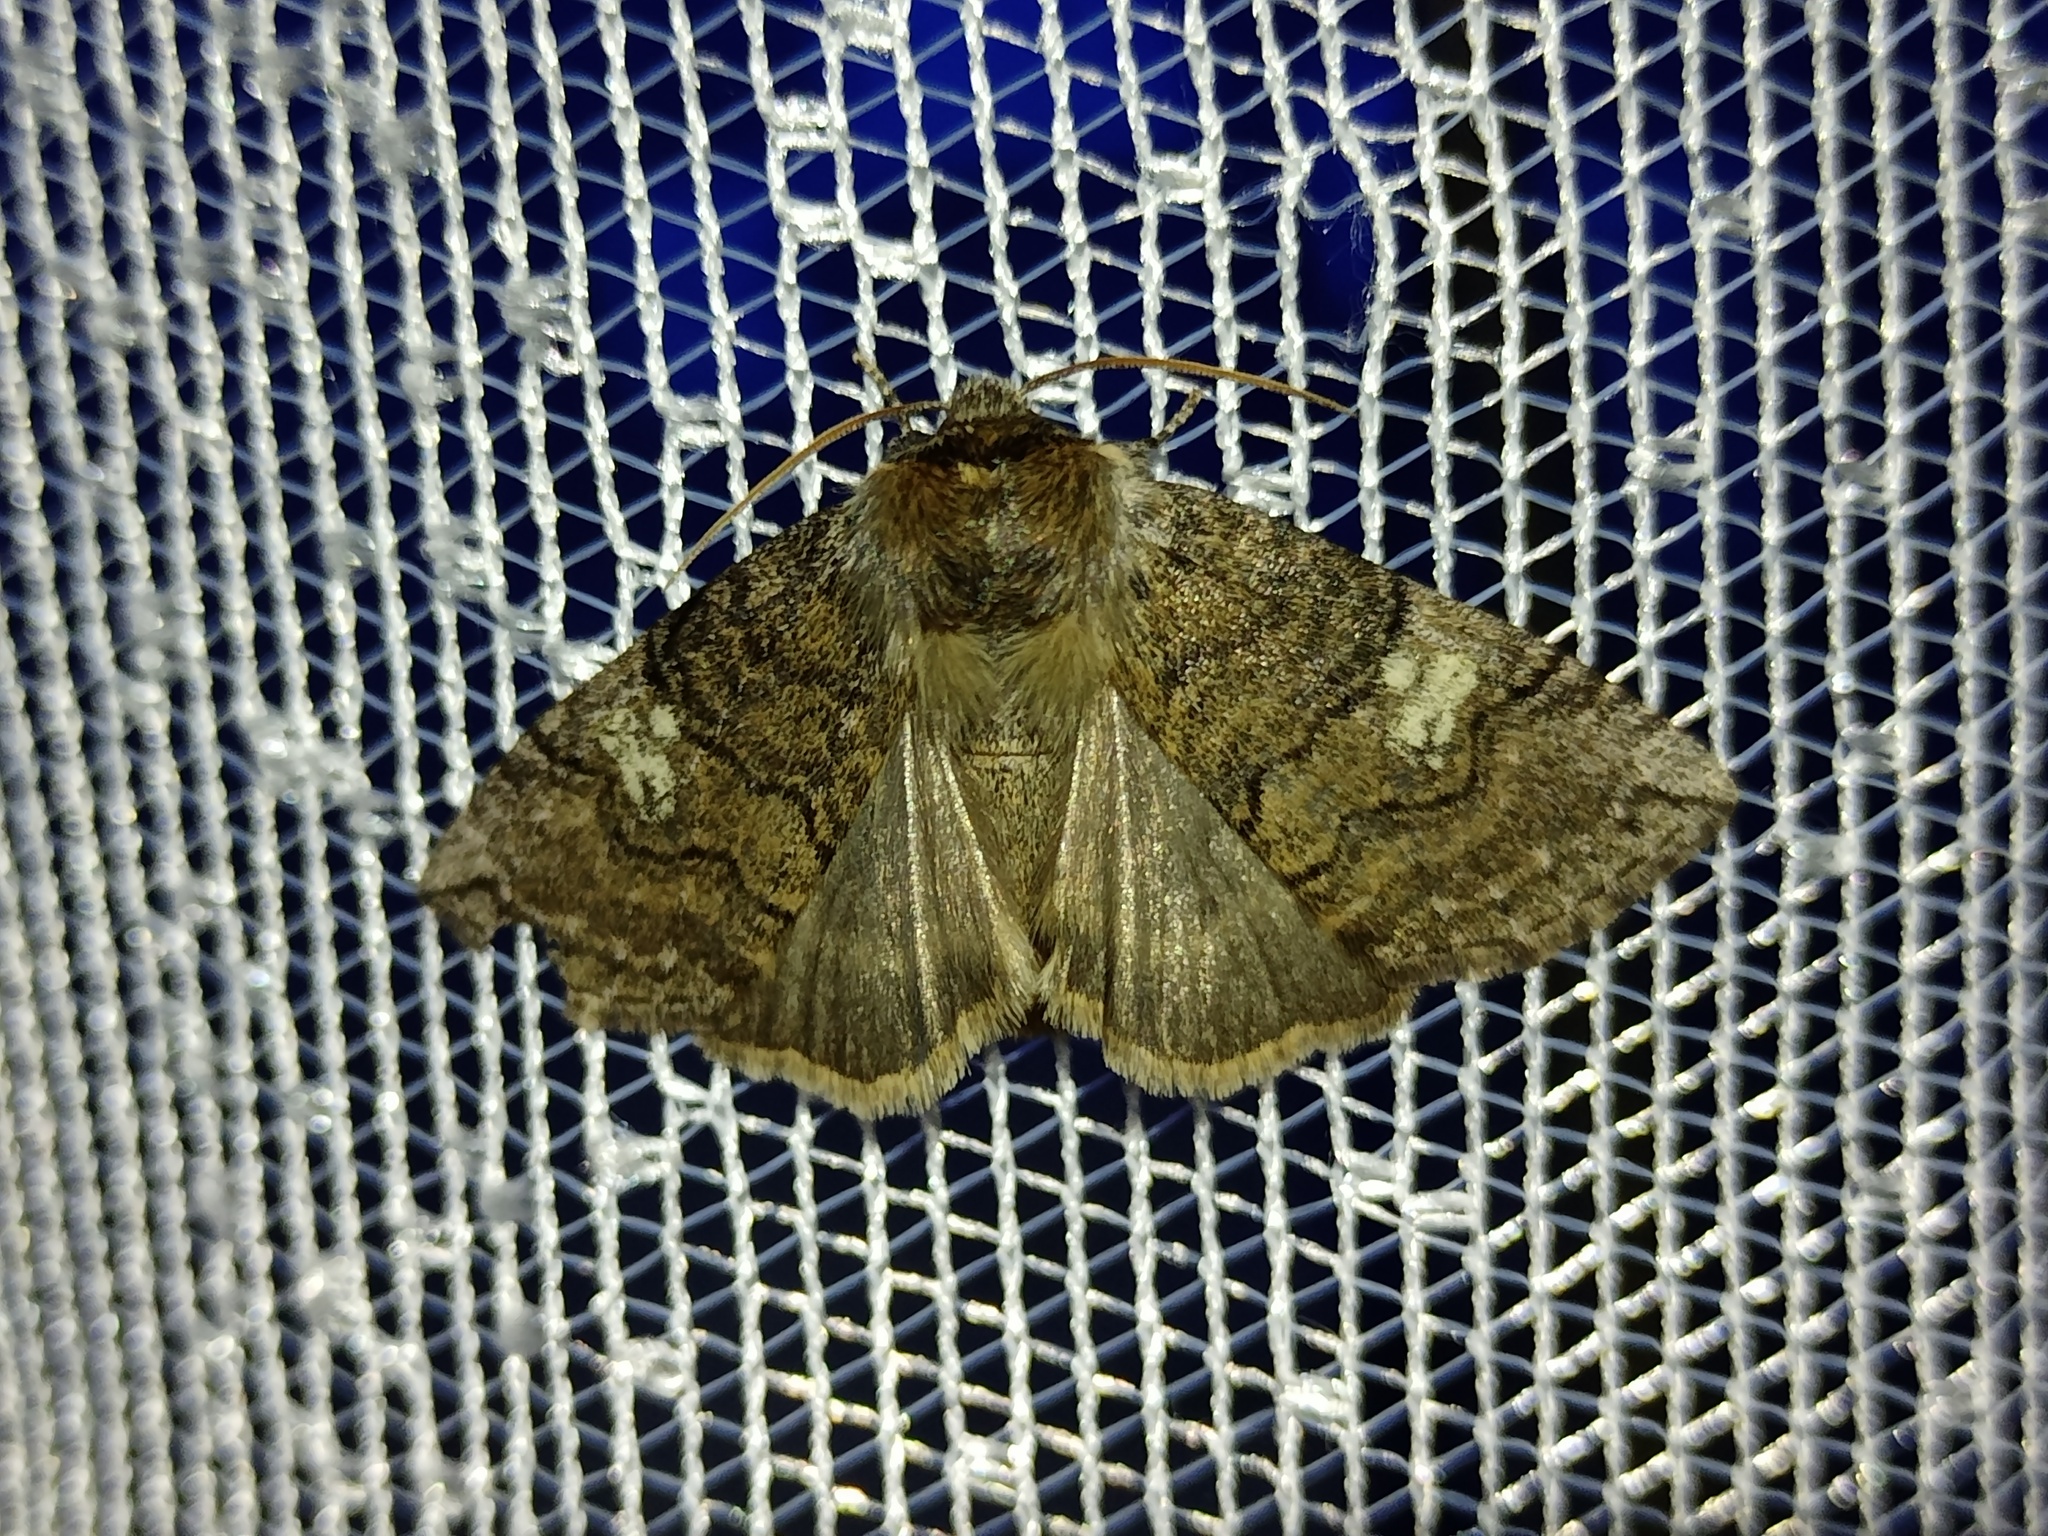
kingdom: Animalia
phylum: Arthropoda
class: Insecta
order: Lepidoptera
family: Drepanidae
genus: Tethea
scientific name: Tethea or
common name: Poplar lutestring
